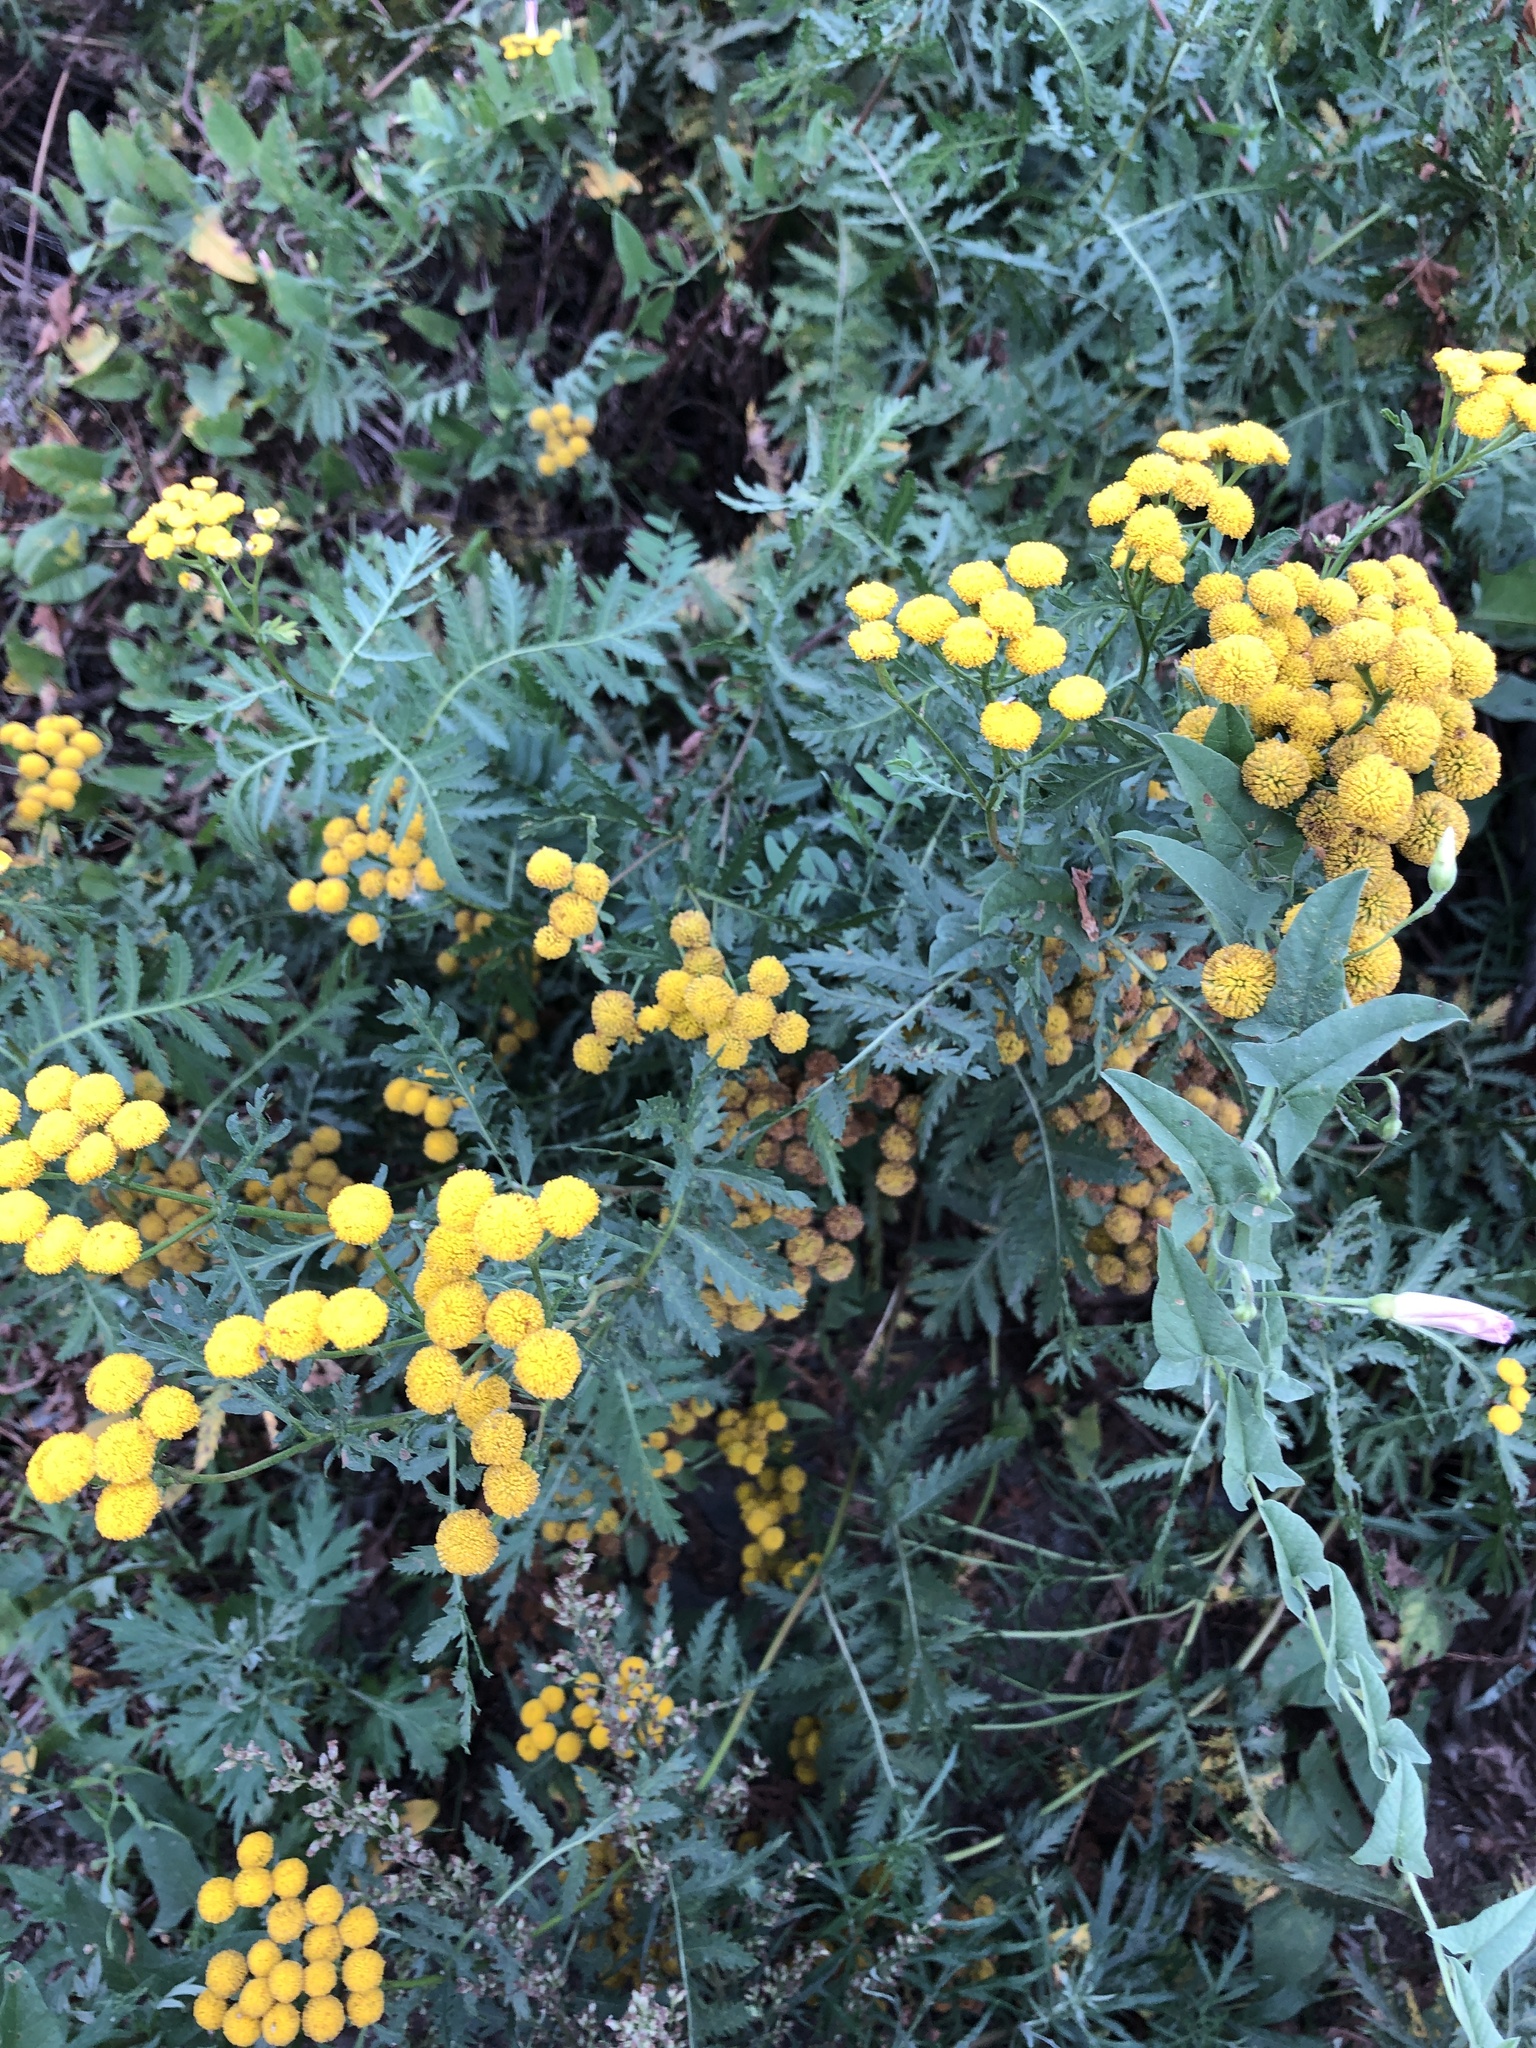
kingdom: Plantae
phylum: Tracheophyta
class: Magnoliopsida
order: Asterales
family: Asteraceae
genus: Tanacetum
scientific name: Tanacetum vulgare
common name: Common tansy
